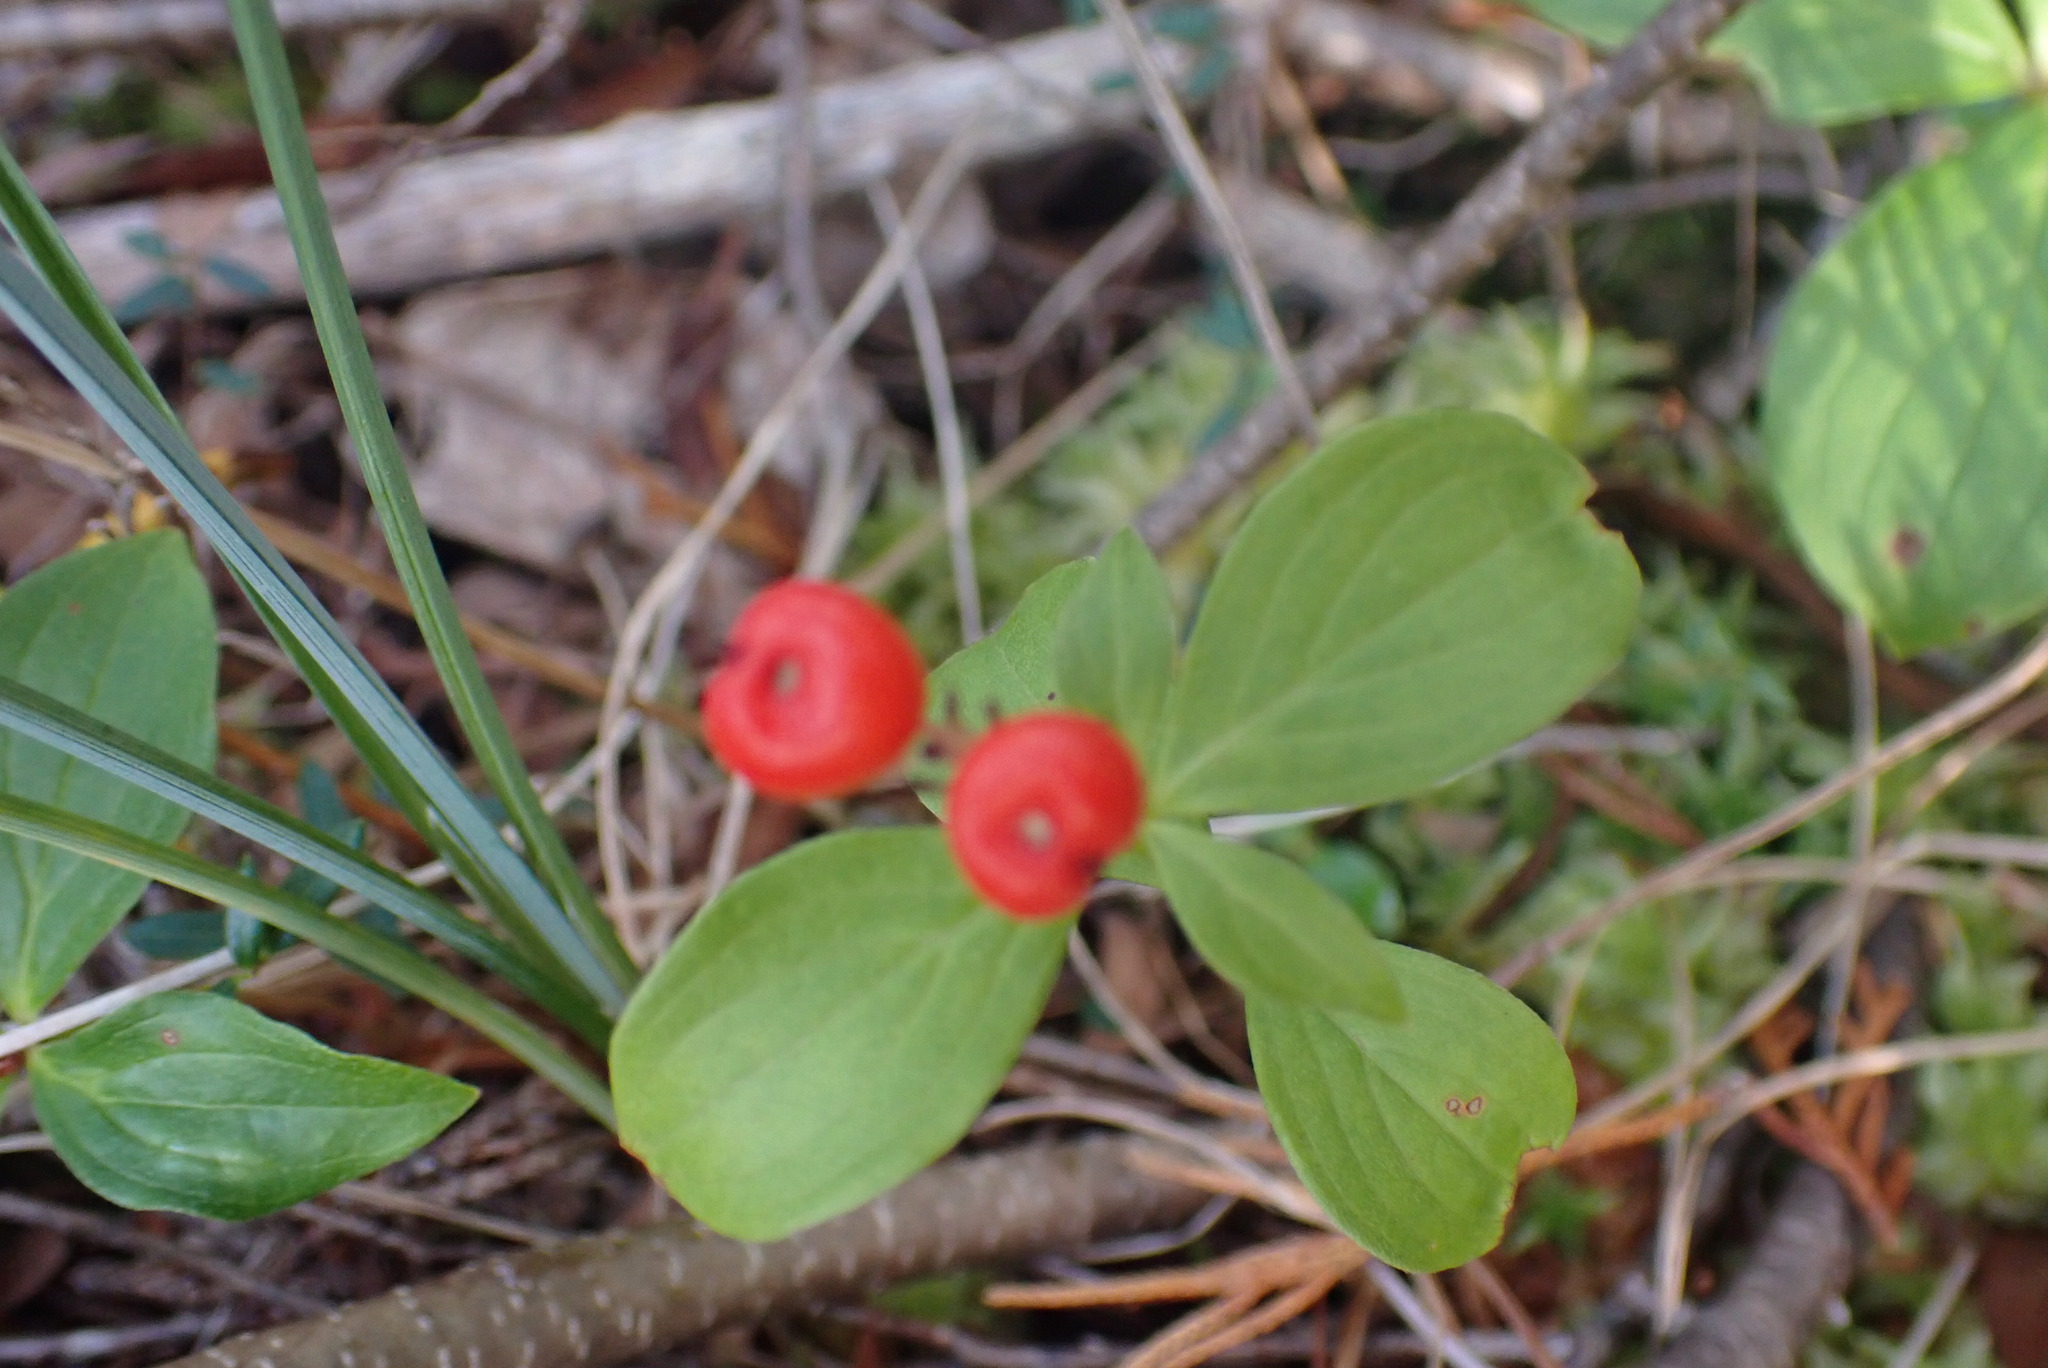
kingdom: Plantae
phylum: Tracheophyta
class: Magnoliopsida
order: Cornales
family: Cornaceae
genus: Cornus
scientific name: Cornus unalaschkensis
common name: Alaska bunchberry
